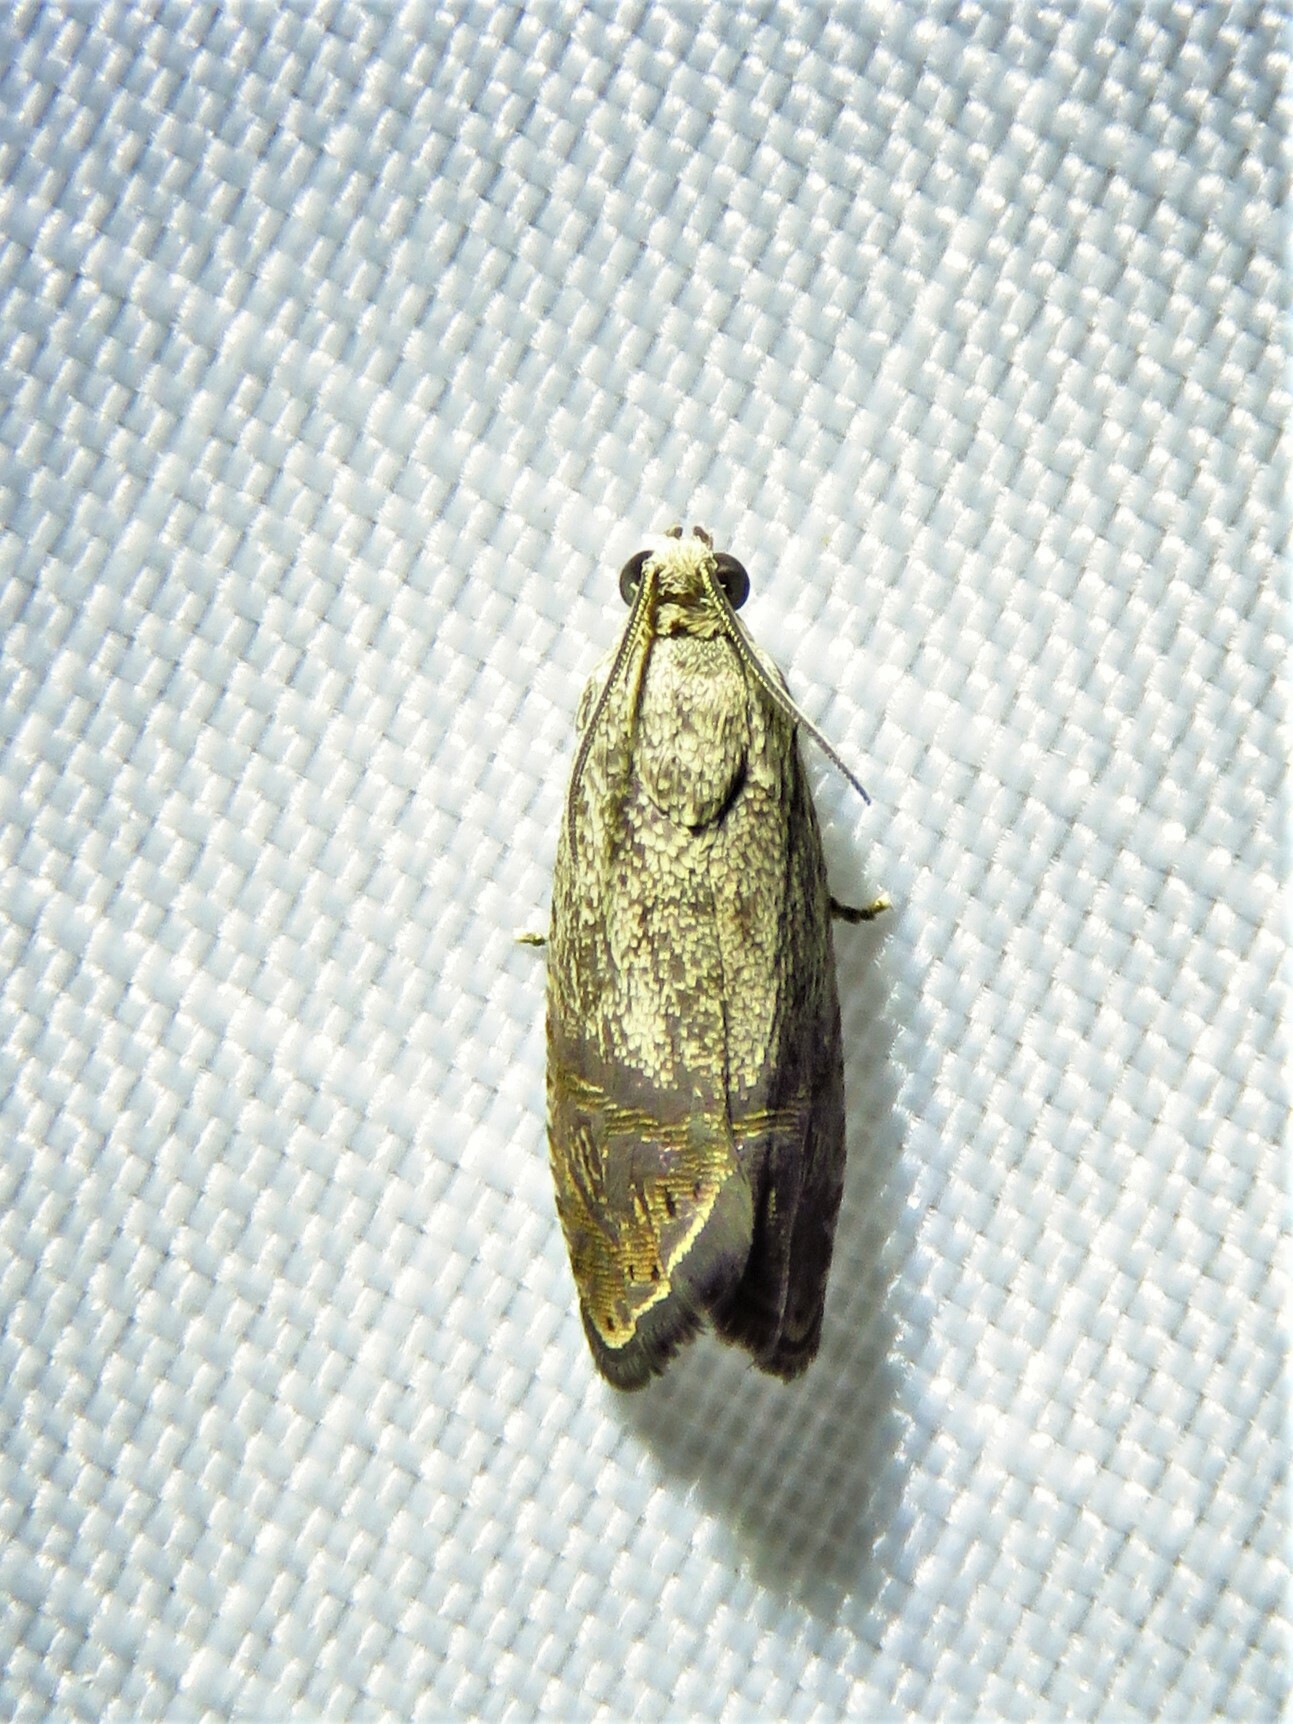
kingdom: Animalia
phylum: Arthropoda
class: Insecta
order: Lepidoptera
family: Tortricidae
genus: Ethelgoda
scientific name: Ethelgoda texanana
